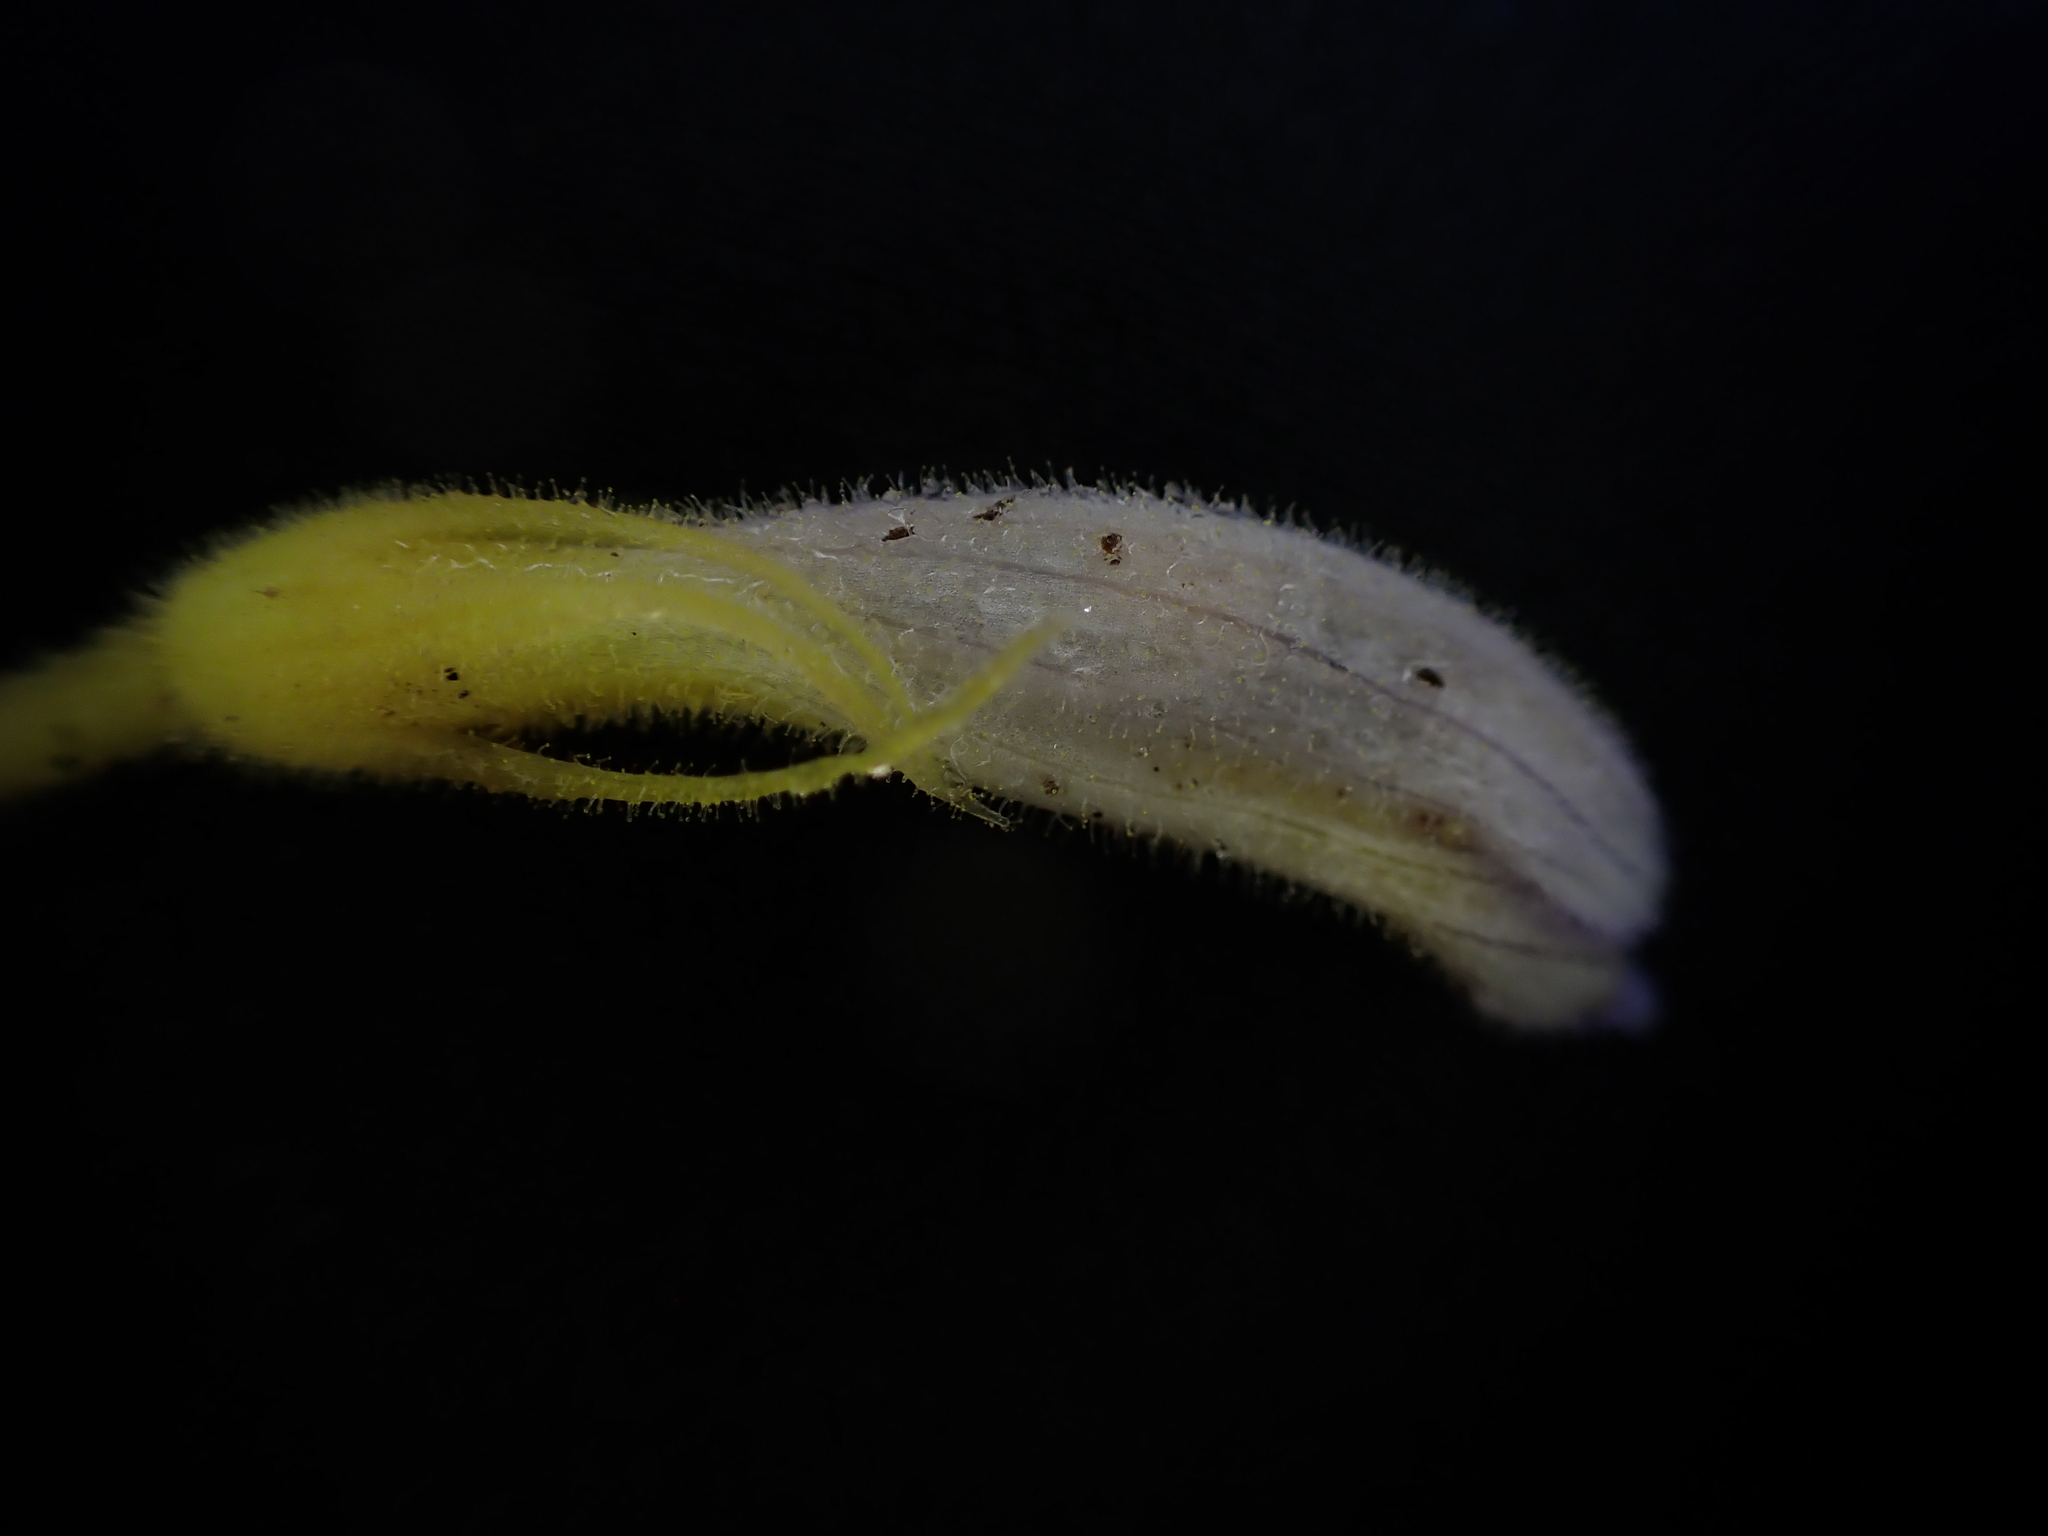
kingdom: Plantae
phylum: Tracheophyta
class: Magnoliopsida
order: Lamiales
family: Orobanchaceae
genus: Aphyllon
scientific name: Aphyllon uniflorum
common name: One-flowered broomrape
